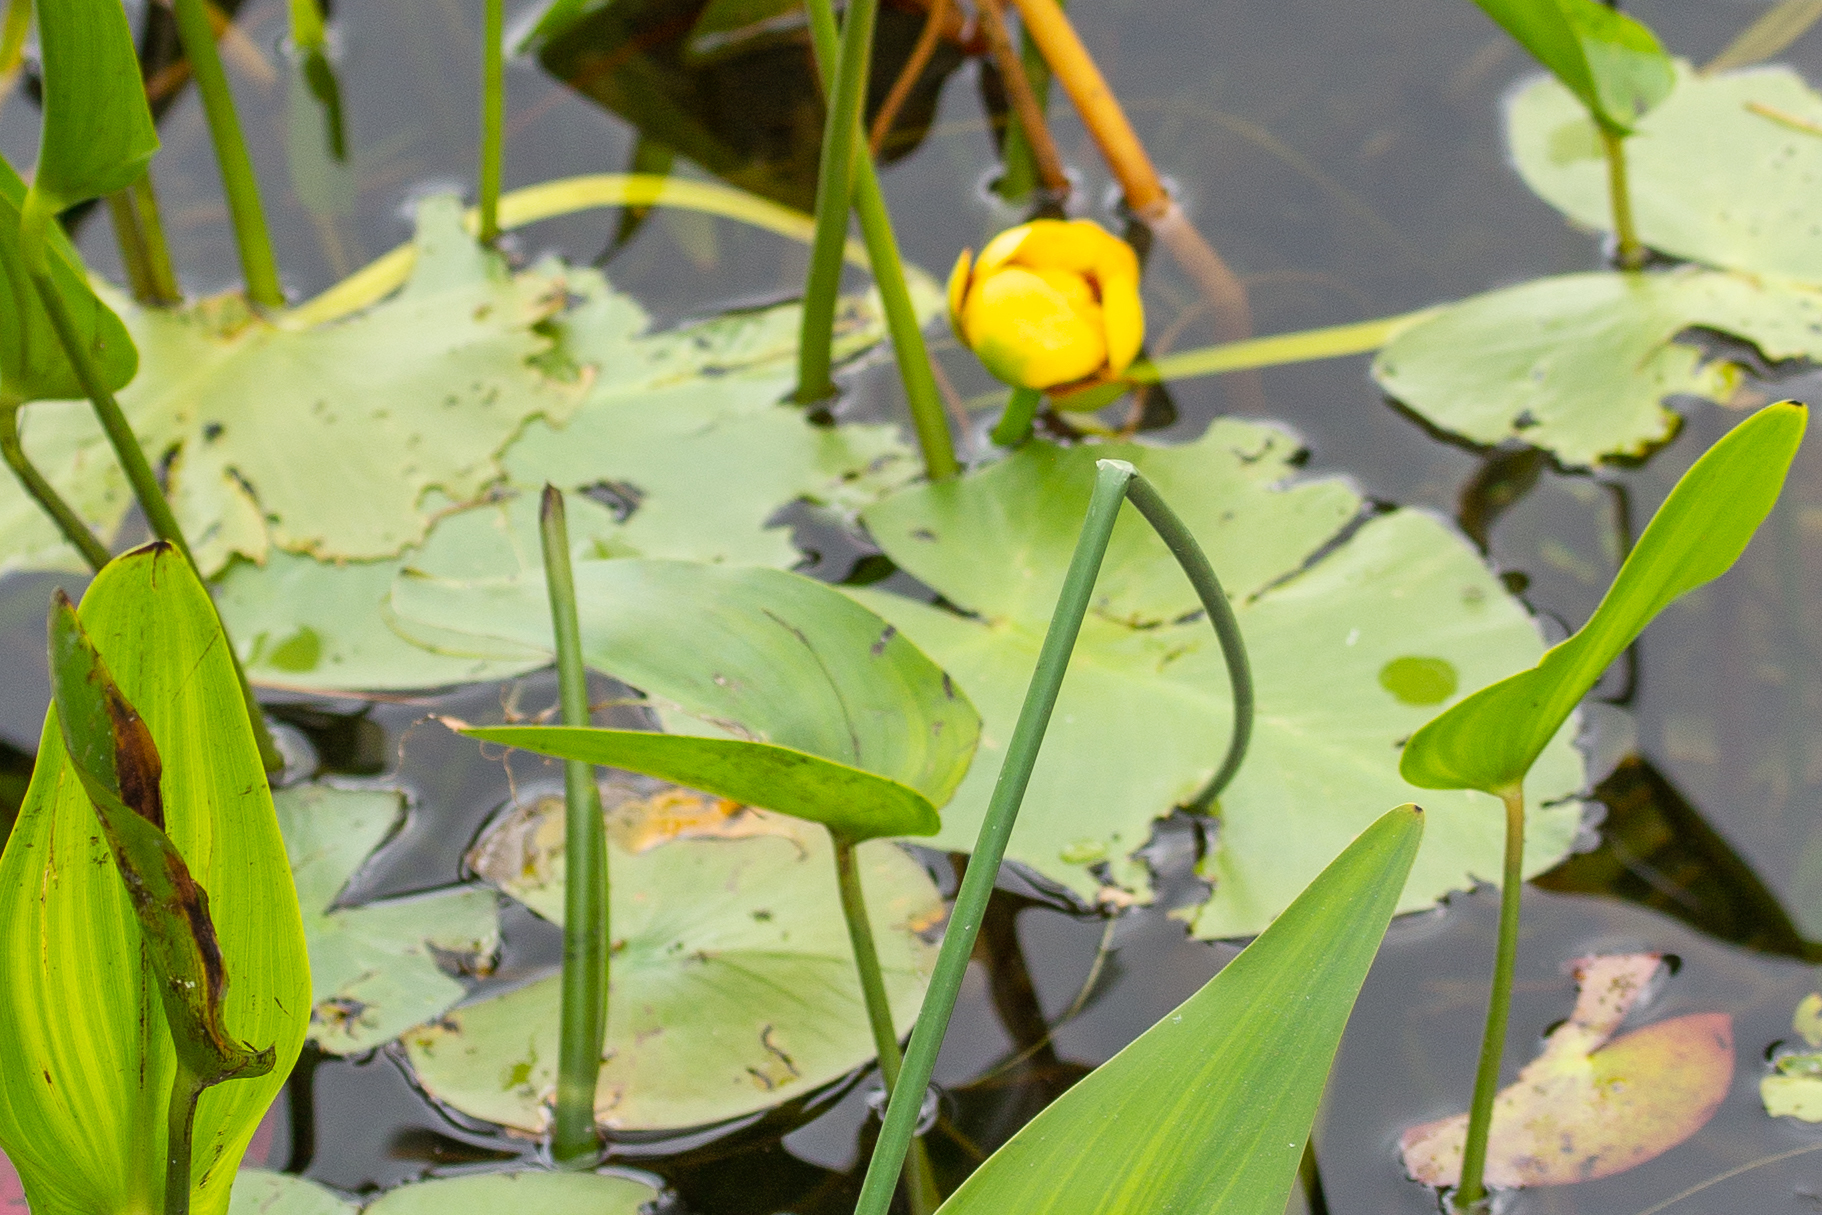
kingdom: Plantae
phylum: Tracheophyta
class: Magnoliopsida
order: Nymphaeales
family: Nymphaeaceae
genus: Nuphar
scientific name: Nuphar variegata
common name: Beaver-root
